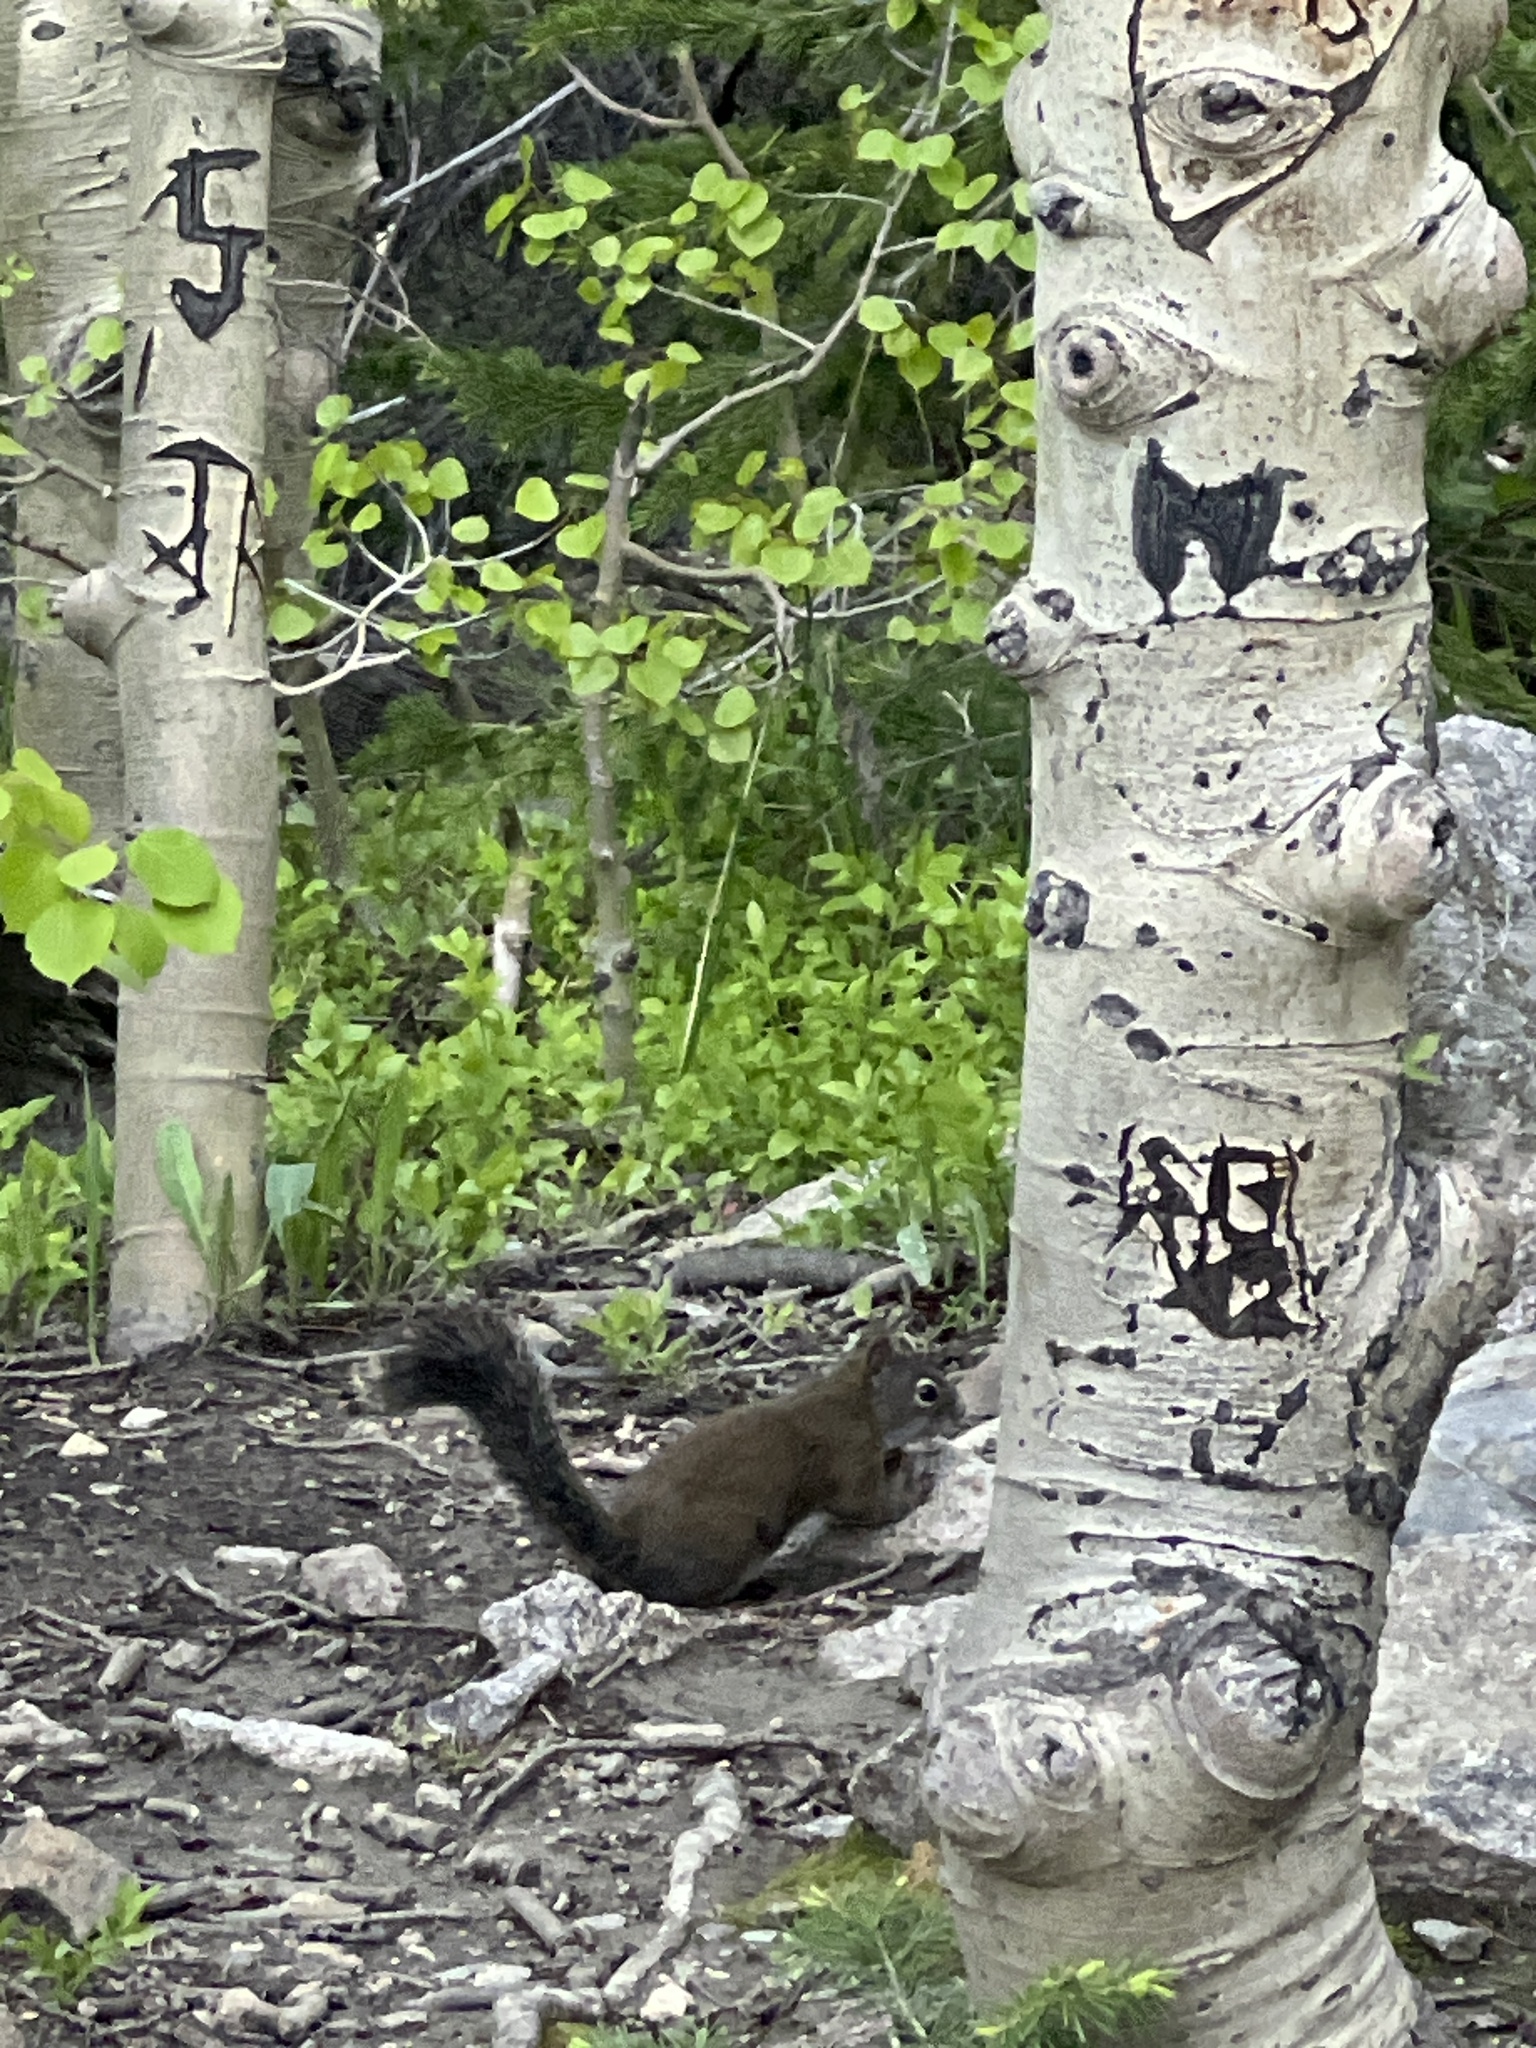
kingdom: Animalia
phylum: Chordata
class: Mammalia
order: Rodentia
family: Sciuridae
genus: Tamiasciurus
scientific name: Tamiasciurus hudsonicus
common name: Red squirrel
